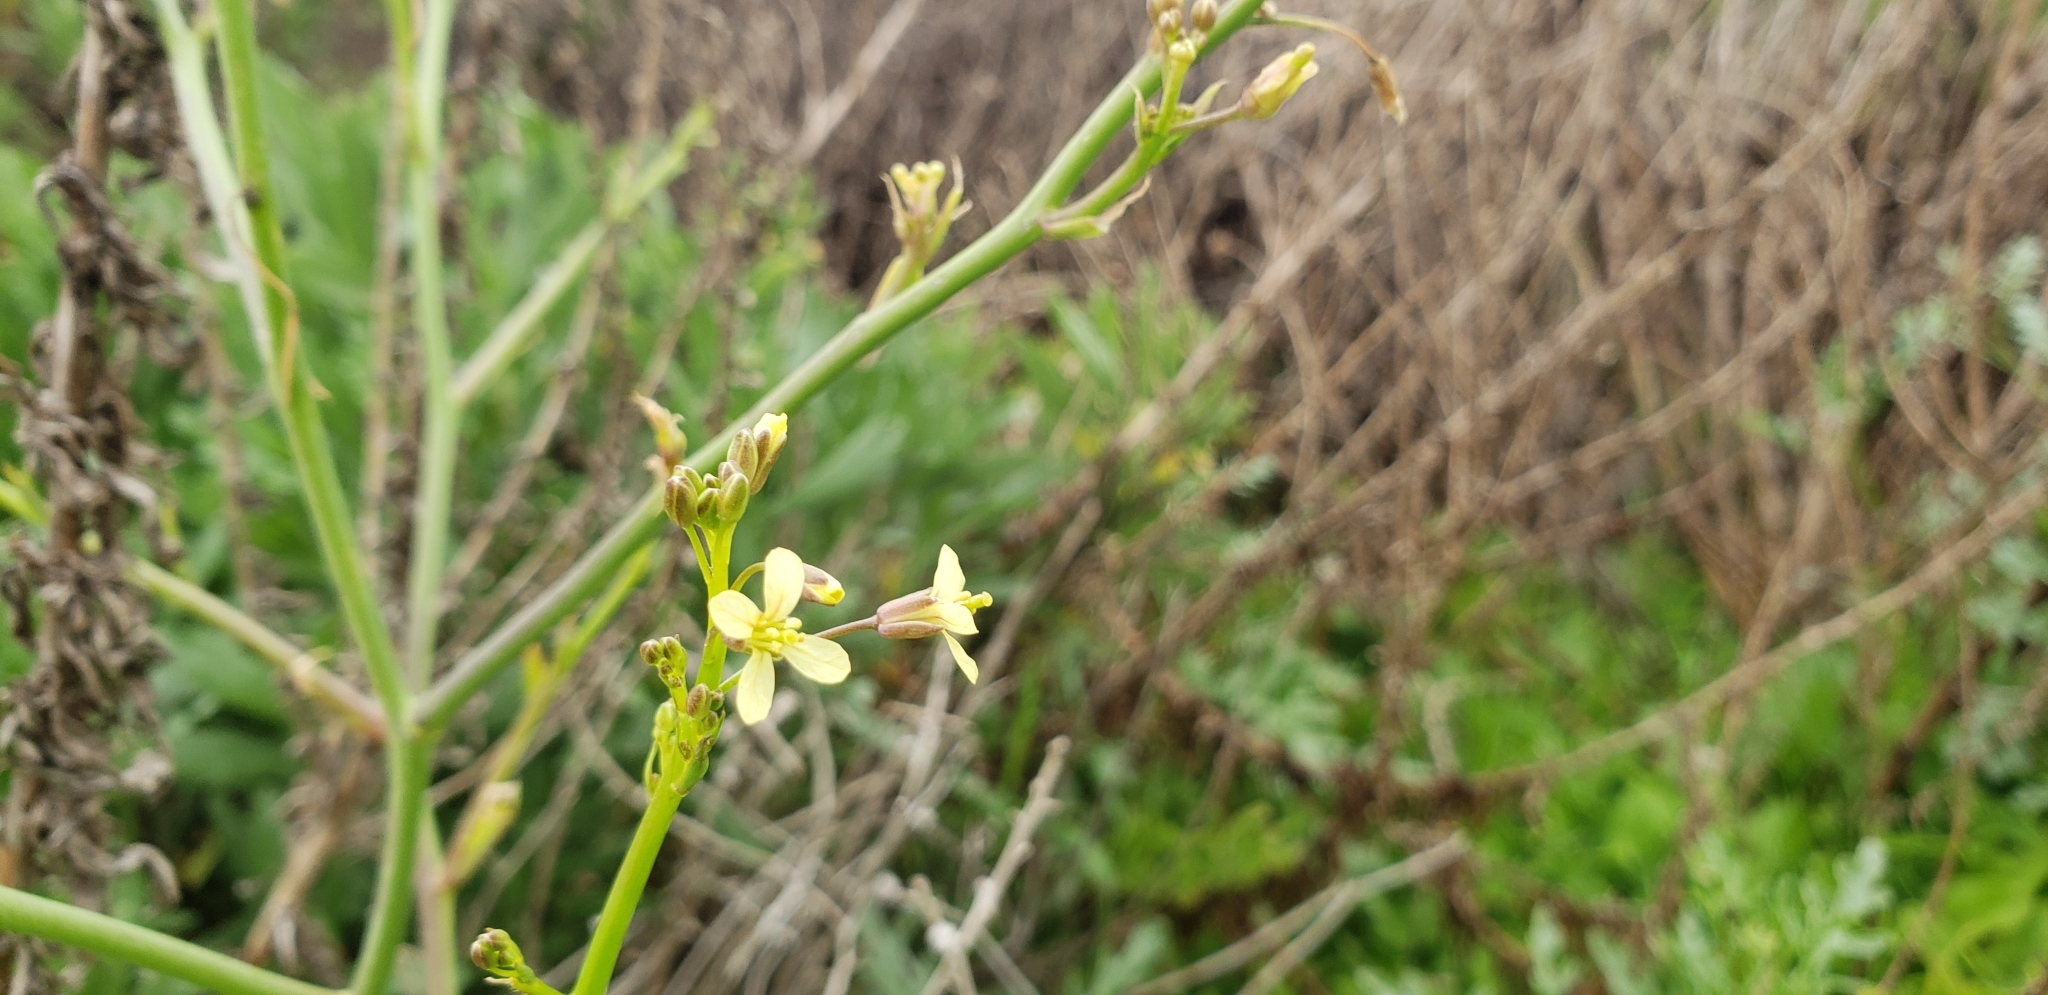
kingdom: Plantae
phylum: Tracheophyta
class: Magnoliopsida
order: Brassicales
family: Brassicaceae
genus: Brassica
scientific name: Brassica tournefortii
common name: Pale cabbage
